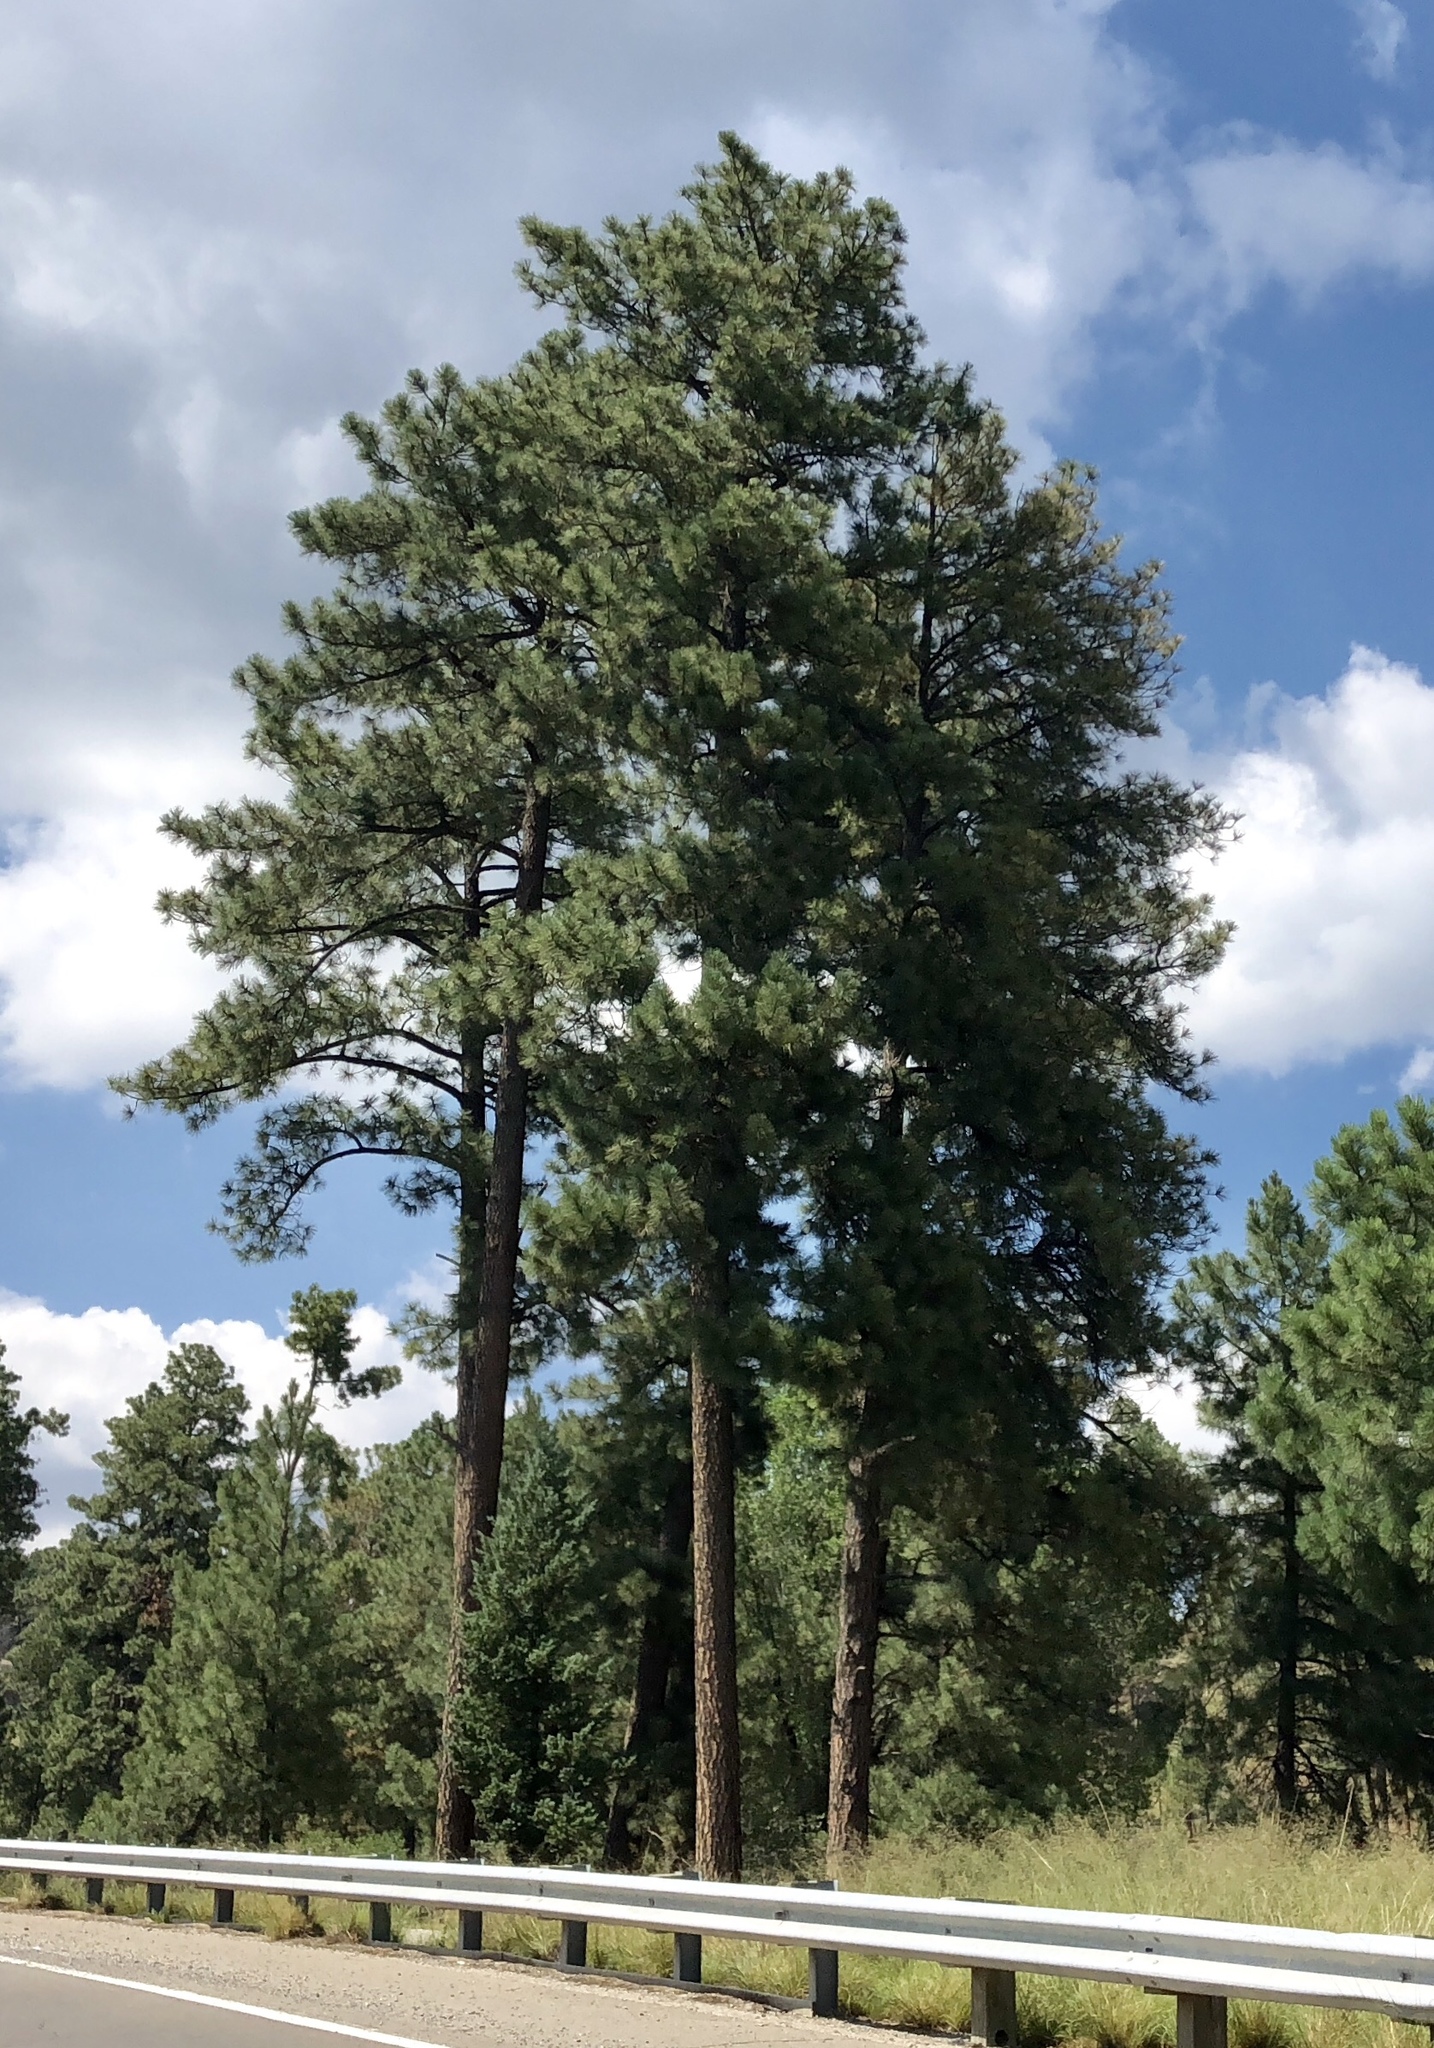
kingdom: Plantae
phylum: Tracheophyta
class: Pinopsida
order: Pinales
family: Pinaceae
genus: Pinus
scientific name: Pinus ponderosa
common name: Western yellow-pine
